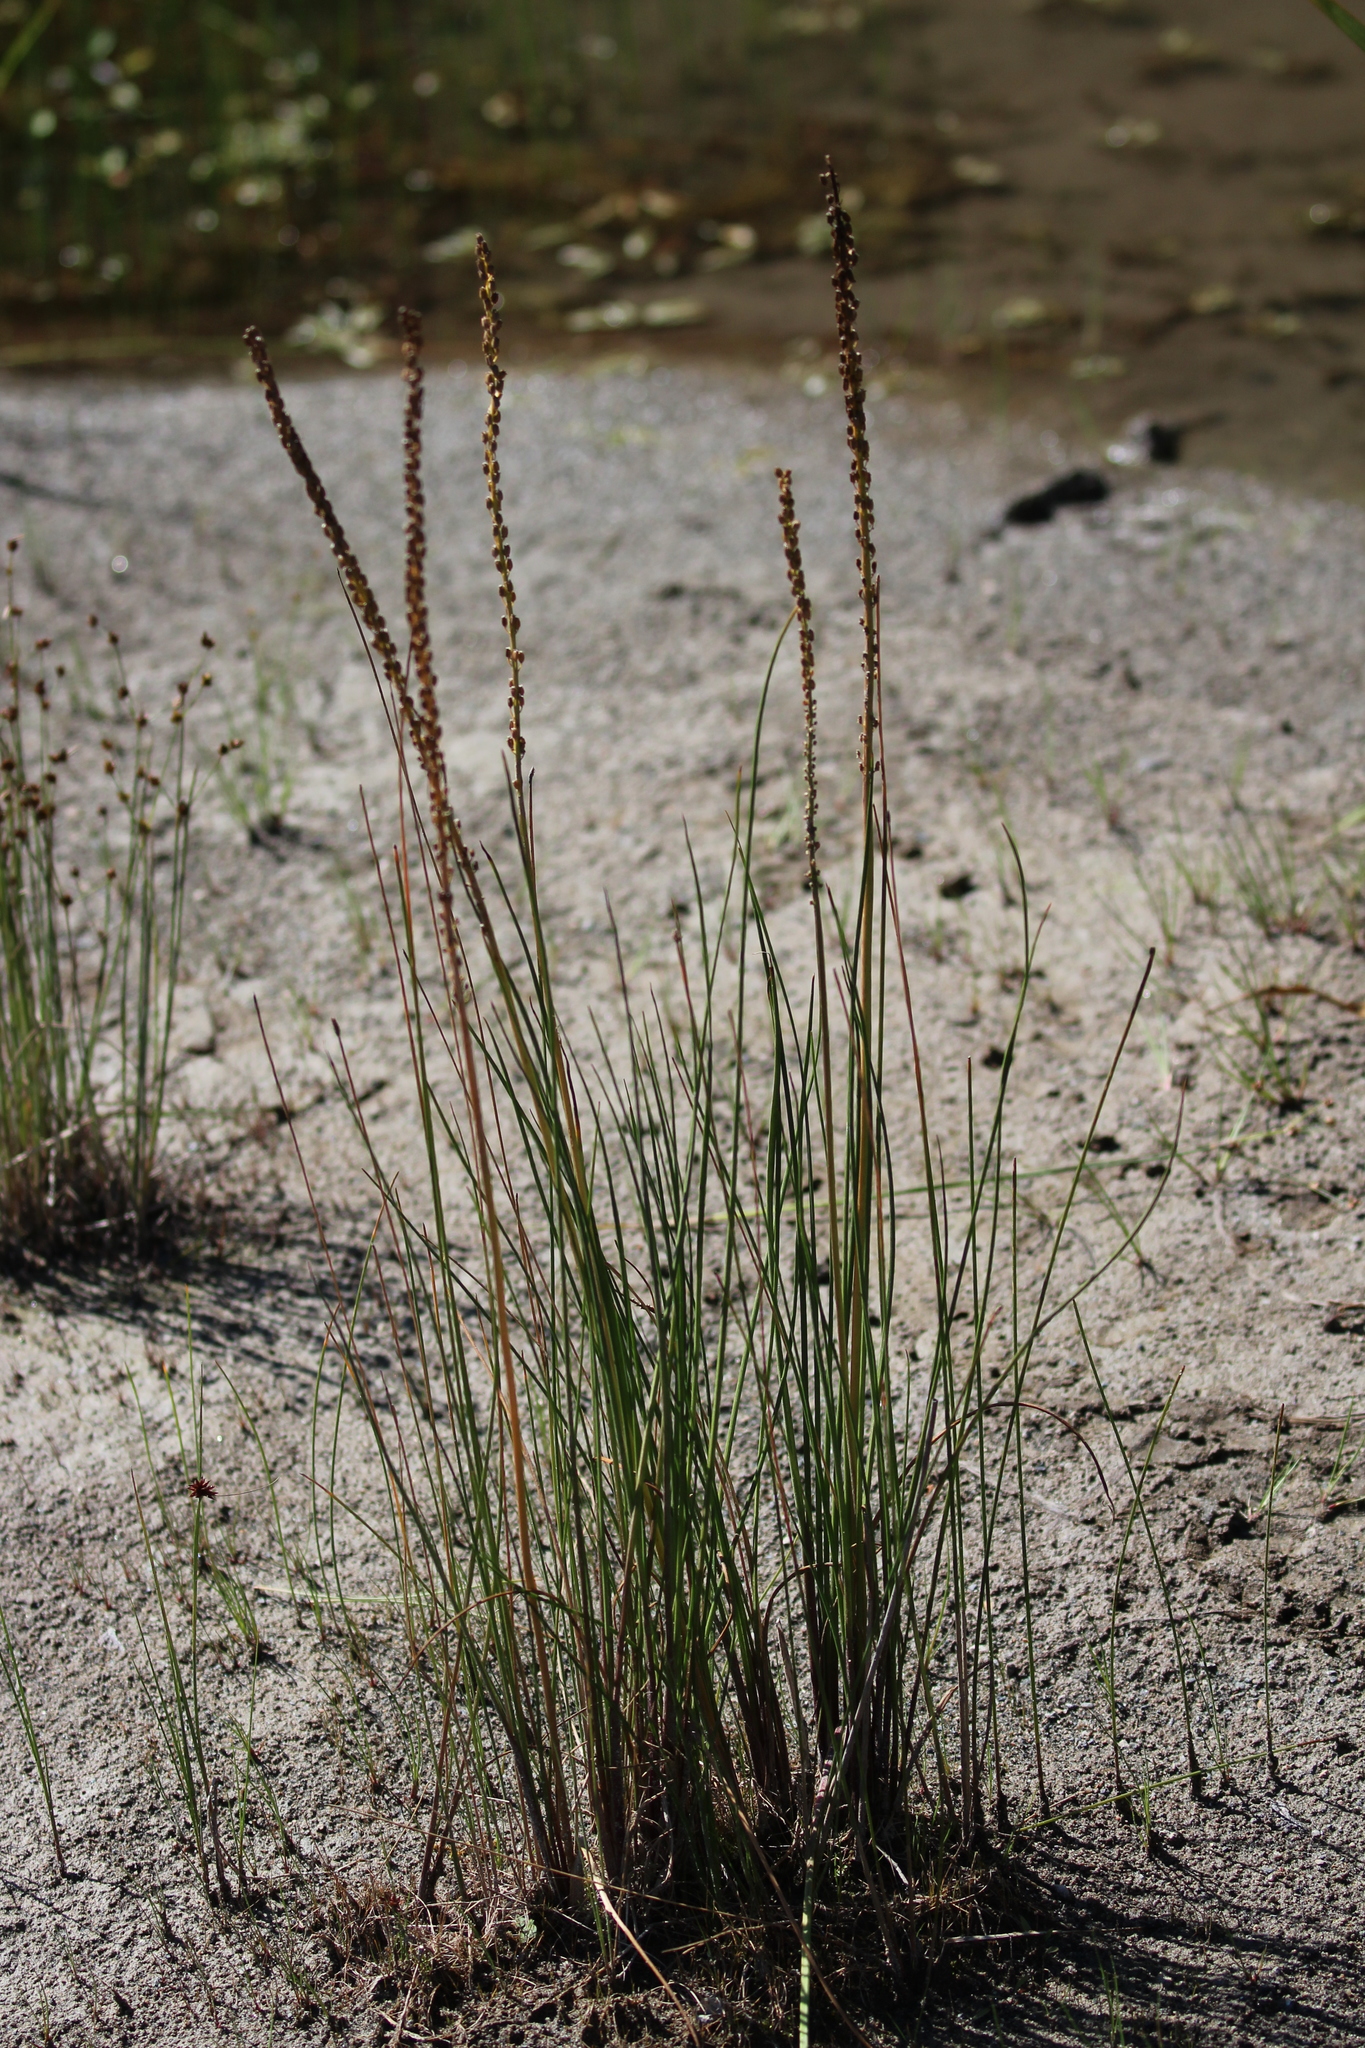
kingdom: Plantae
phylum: Tracheophyta
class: Liliopsida
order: Alismatales
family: Juncaginaceae
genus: Triglochin
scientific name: Triglochin maritima
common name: Sea arrowgrass
